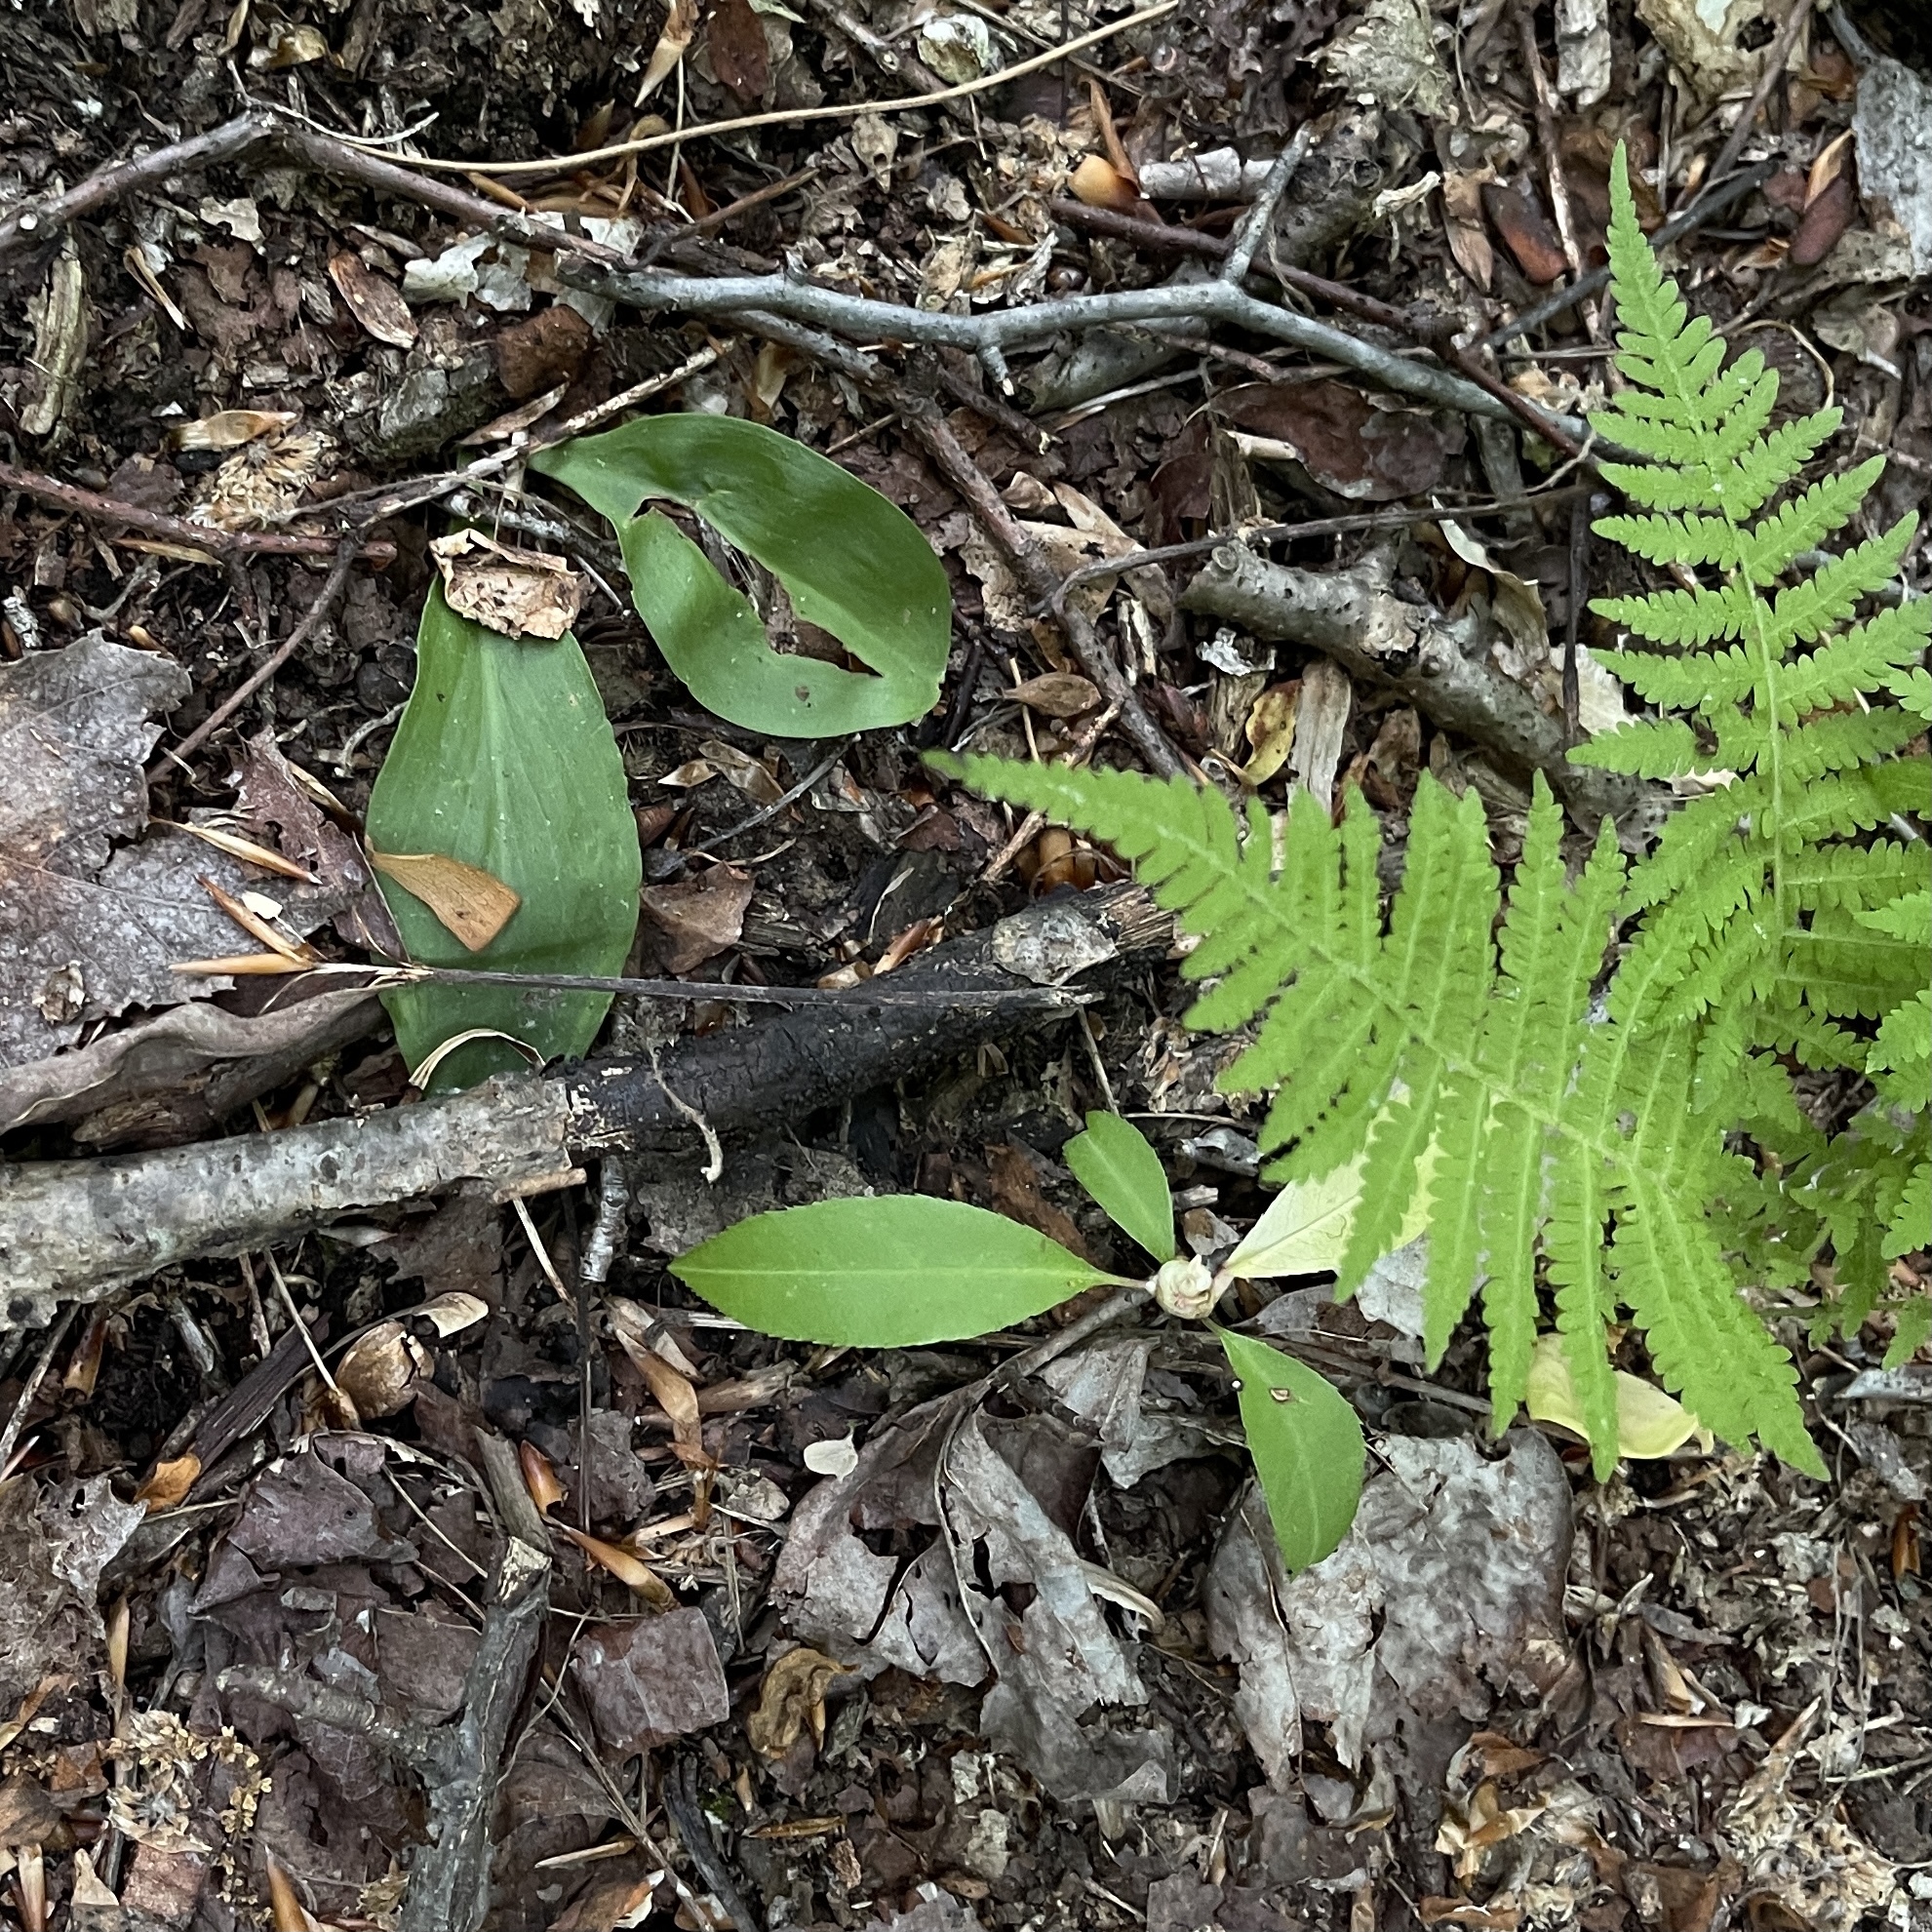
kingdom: Plantae
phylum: Tracheophyta
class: Liliopsida
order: Liliales
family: Melanthiaceae
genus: Chamaelirium
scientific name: Chamaelirium luteum
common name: Fairy-wand
